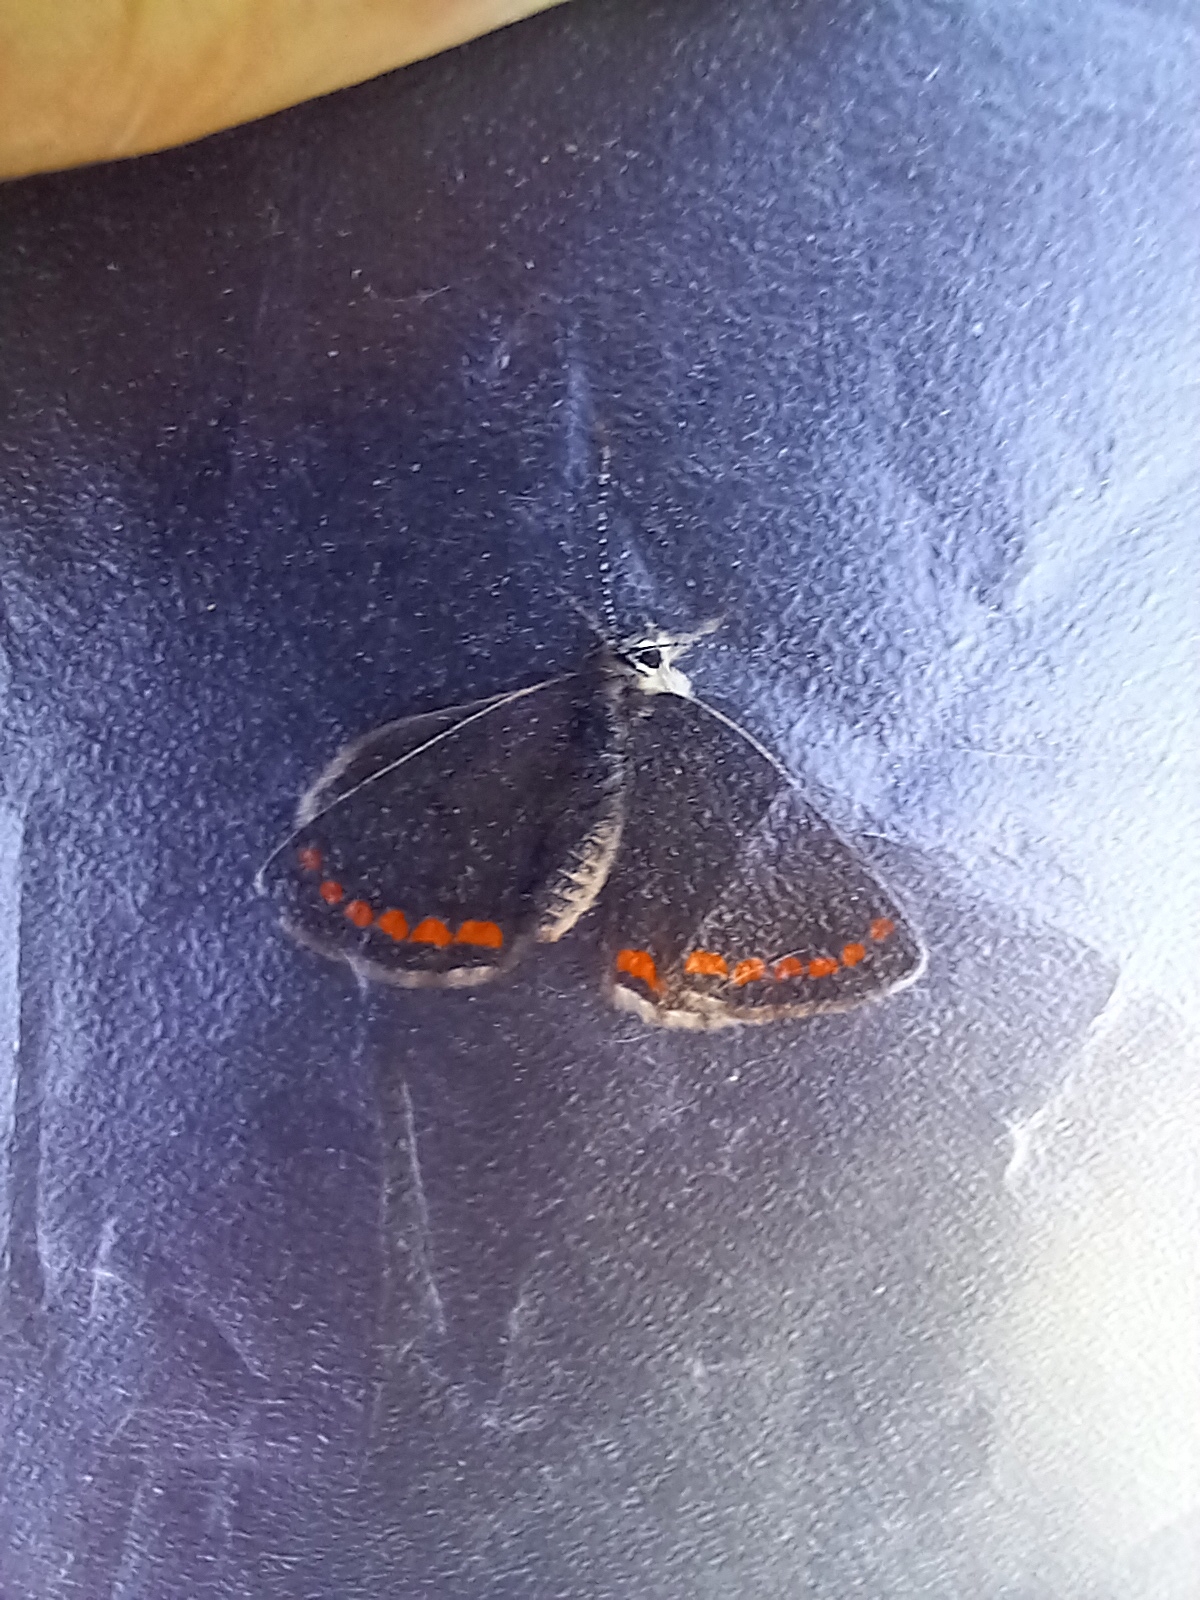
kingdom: Animalia
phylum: Arthropoda
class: Insecta
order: Lepidoptera
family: Lycaenidae
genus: Aricia
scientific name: Aricia agestis
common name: Brown argus
